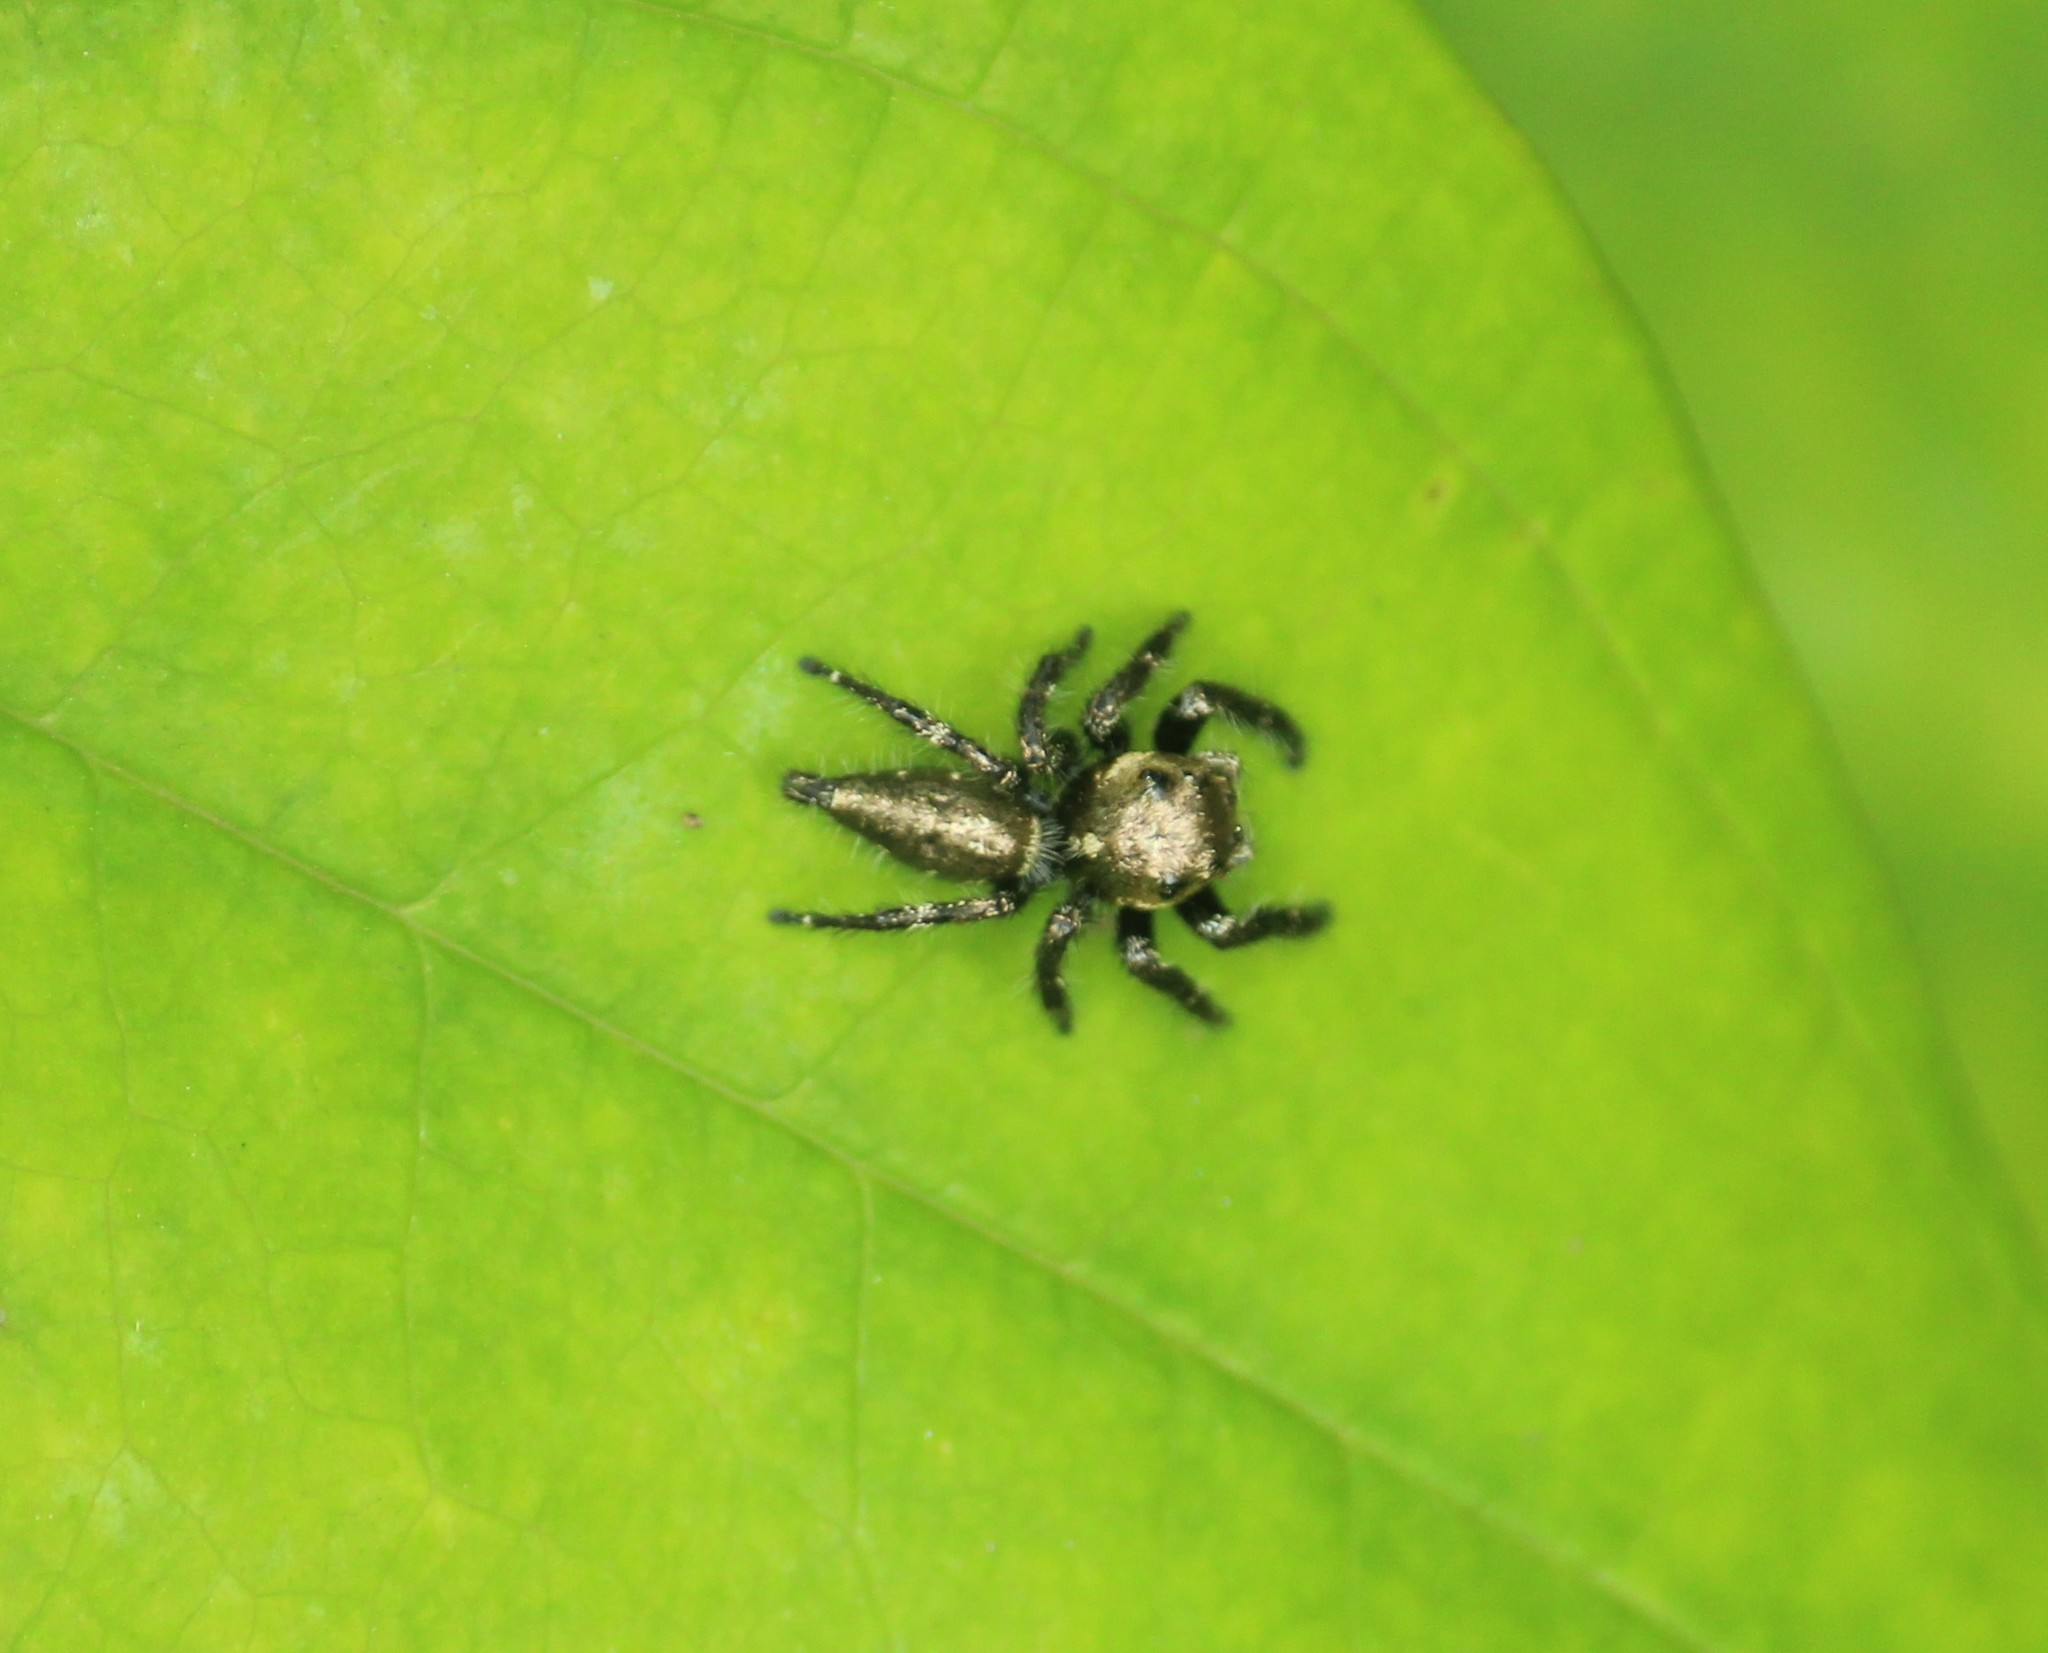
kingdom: Animalia
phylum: Arthropoda
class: Arachnida
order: Araneae
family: Salticidae
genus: Hyllus
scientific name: Hyllus semicupreus
